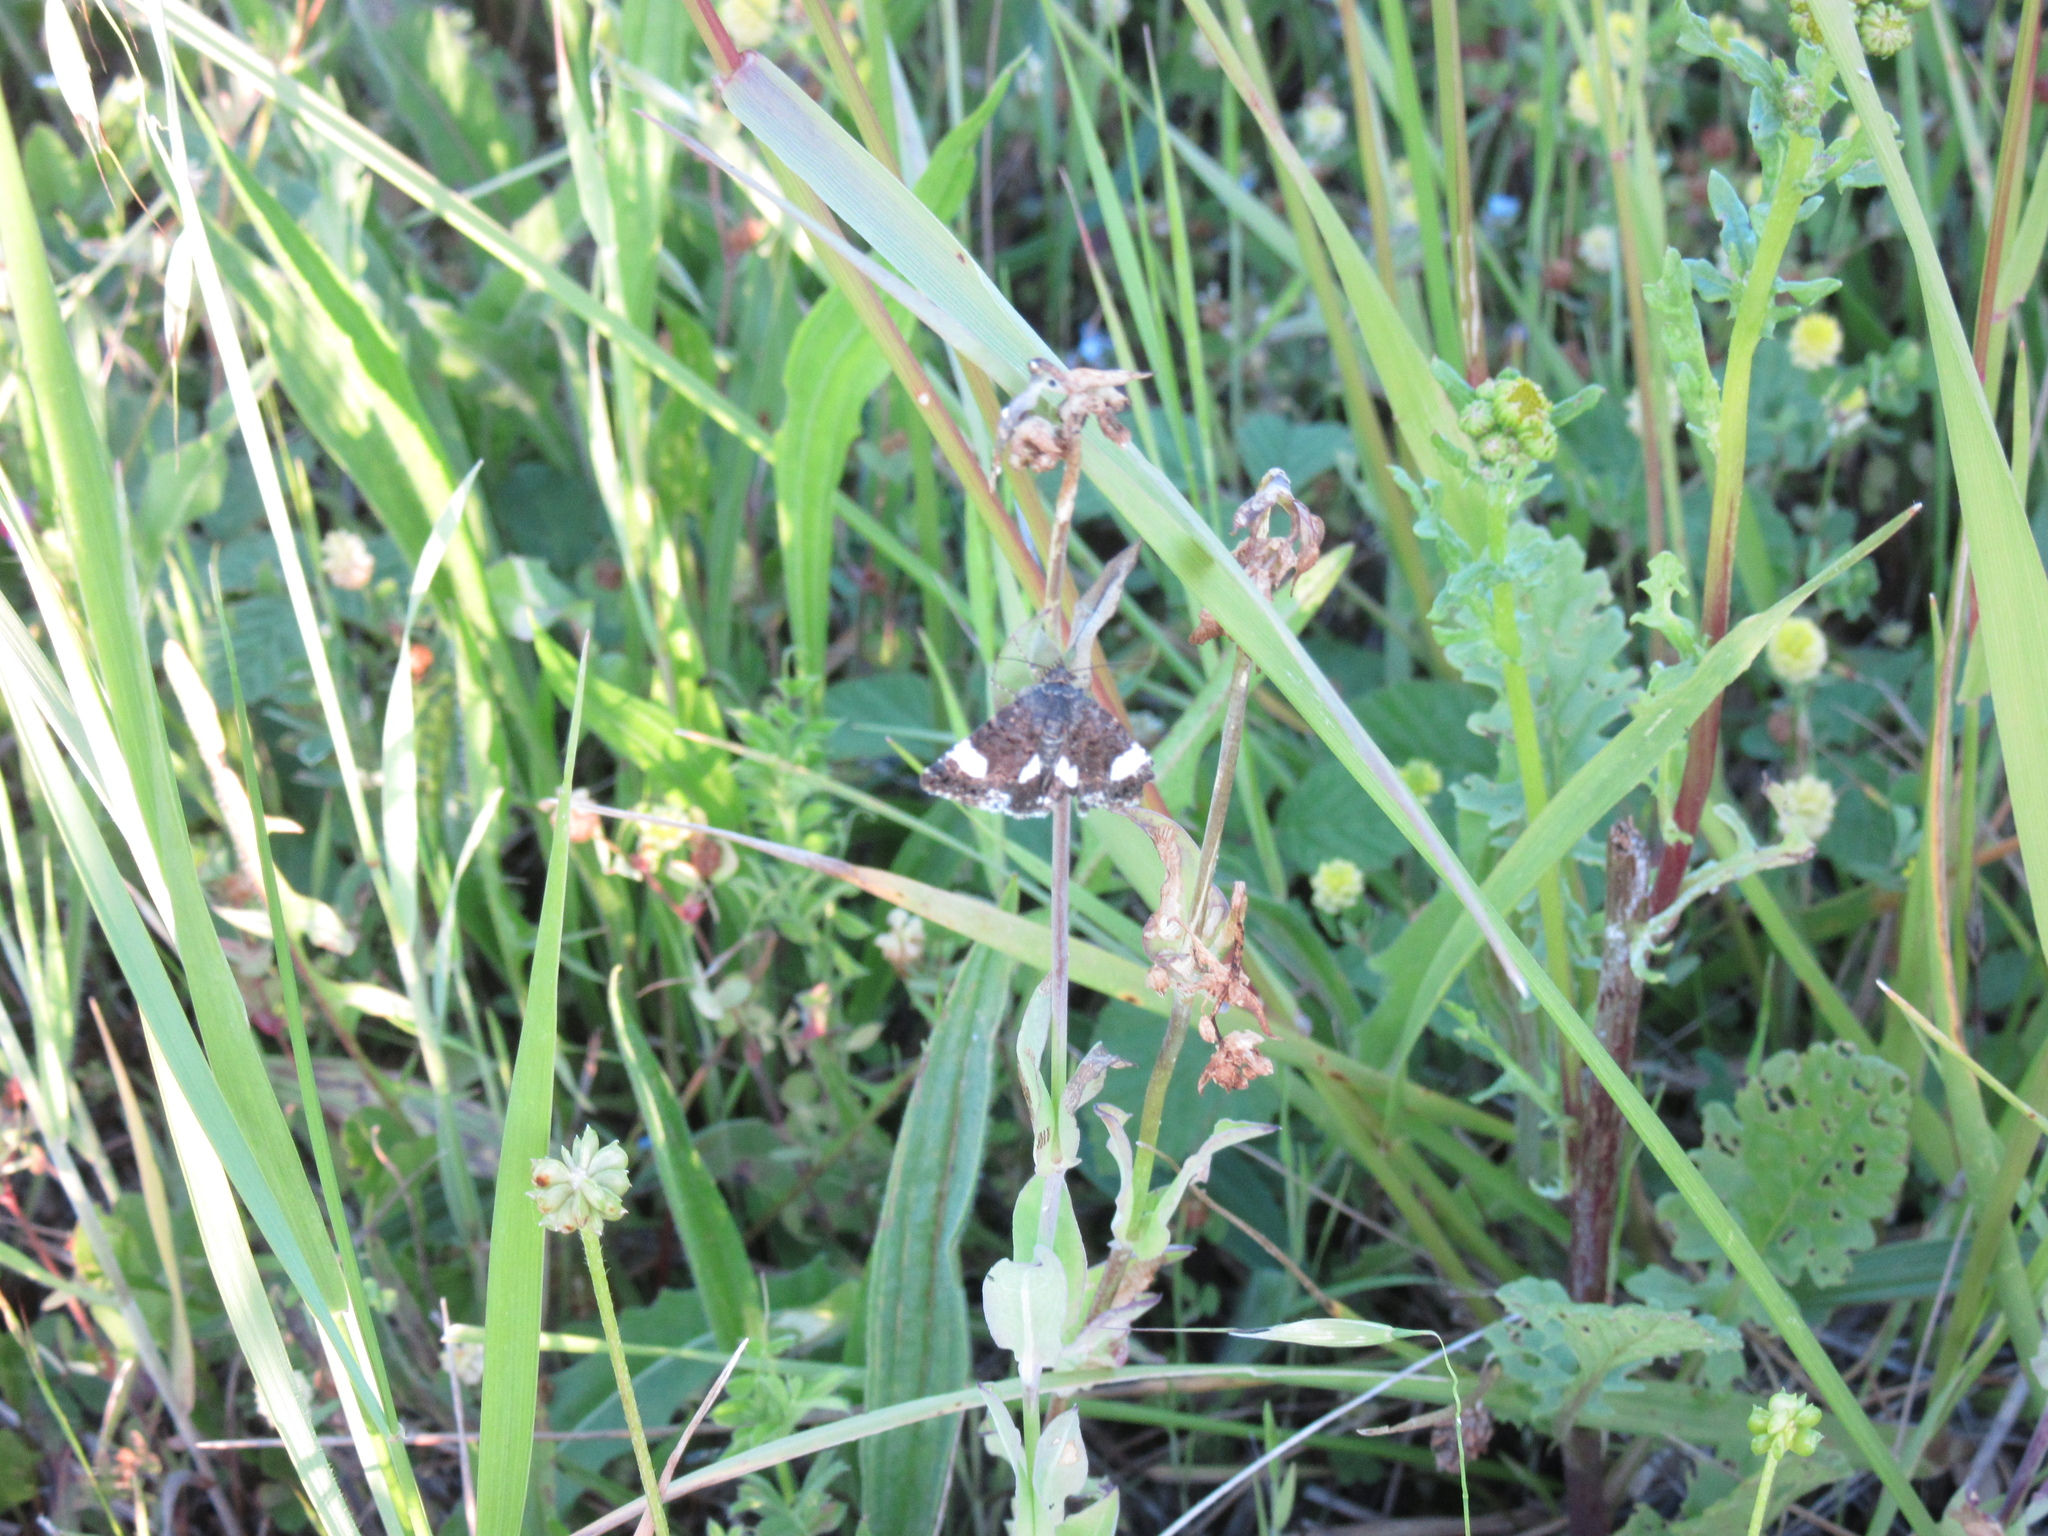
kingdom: Animalia
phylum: Arthropoda
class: Insecta
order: Lepidoptera
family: Erebidae
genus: Tyta
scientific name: Tyta luctuosa
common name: Four-spotted
